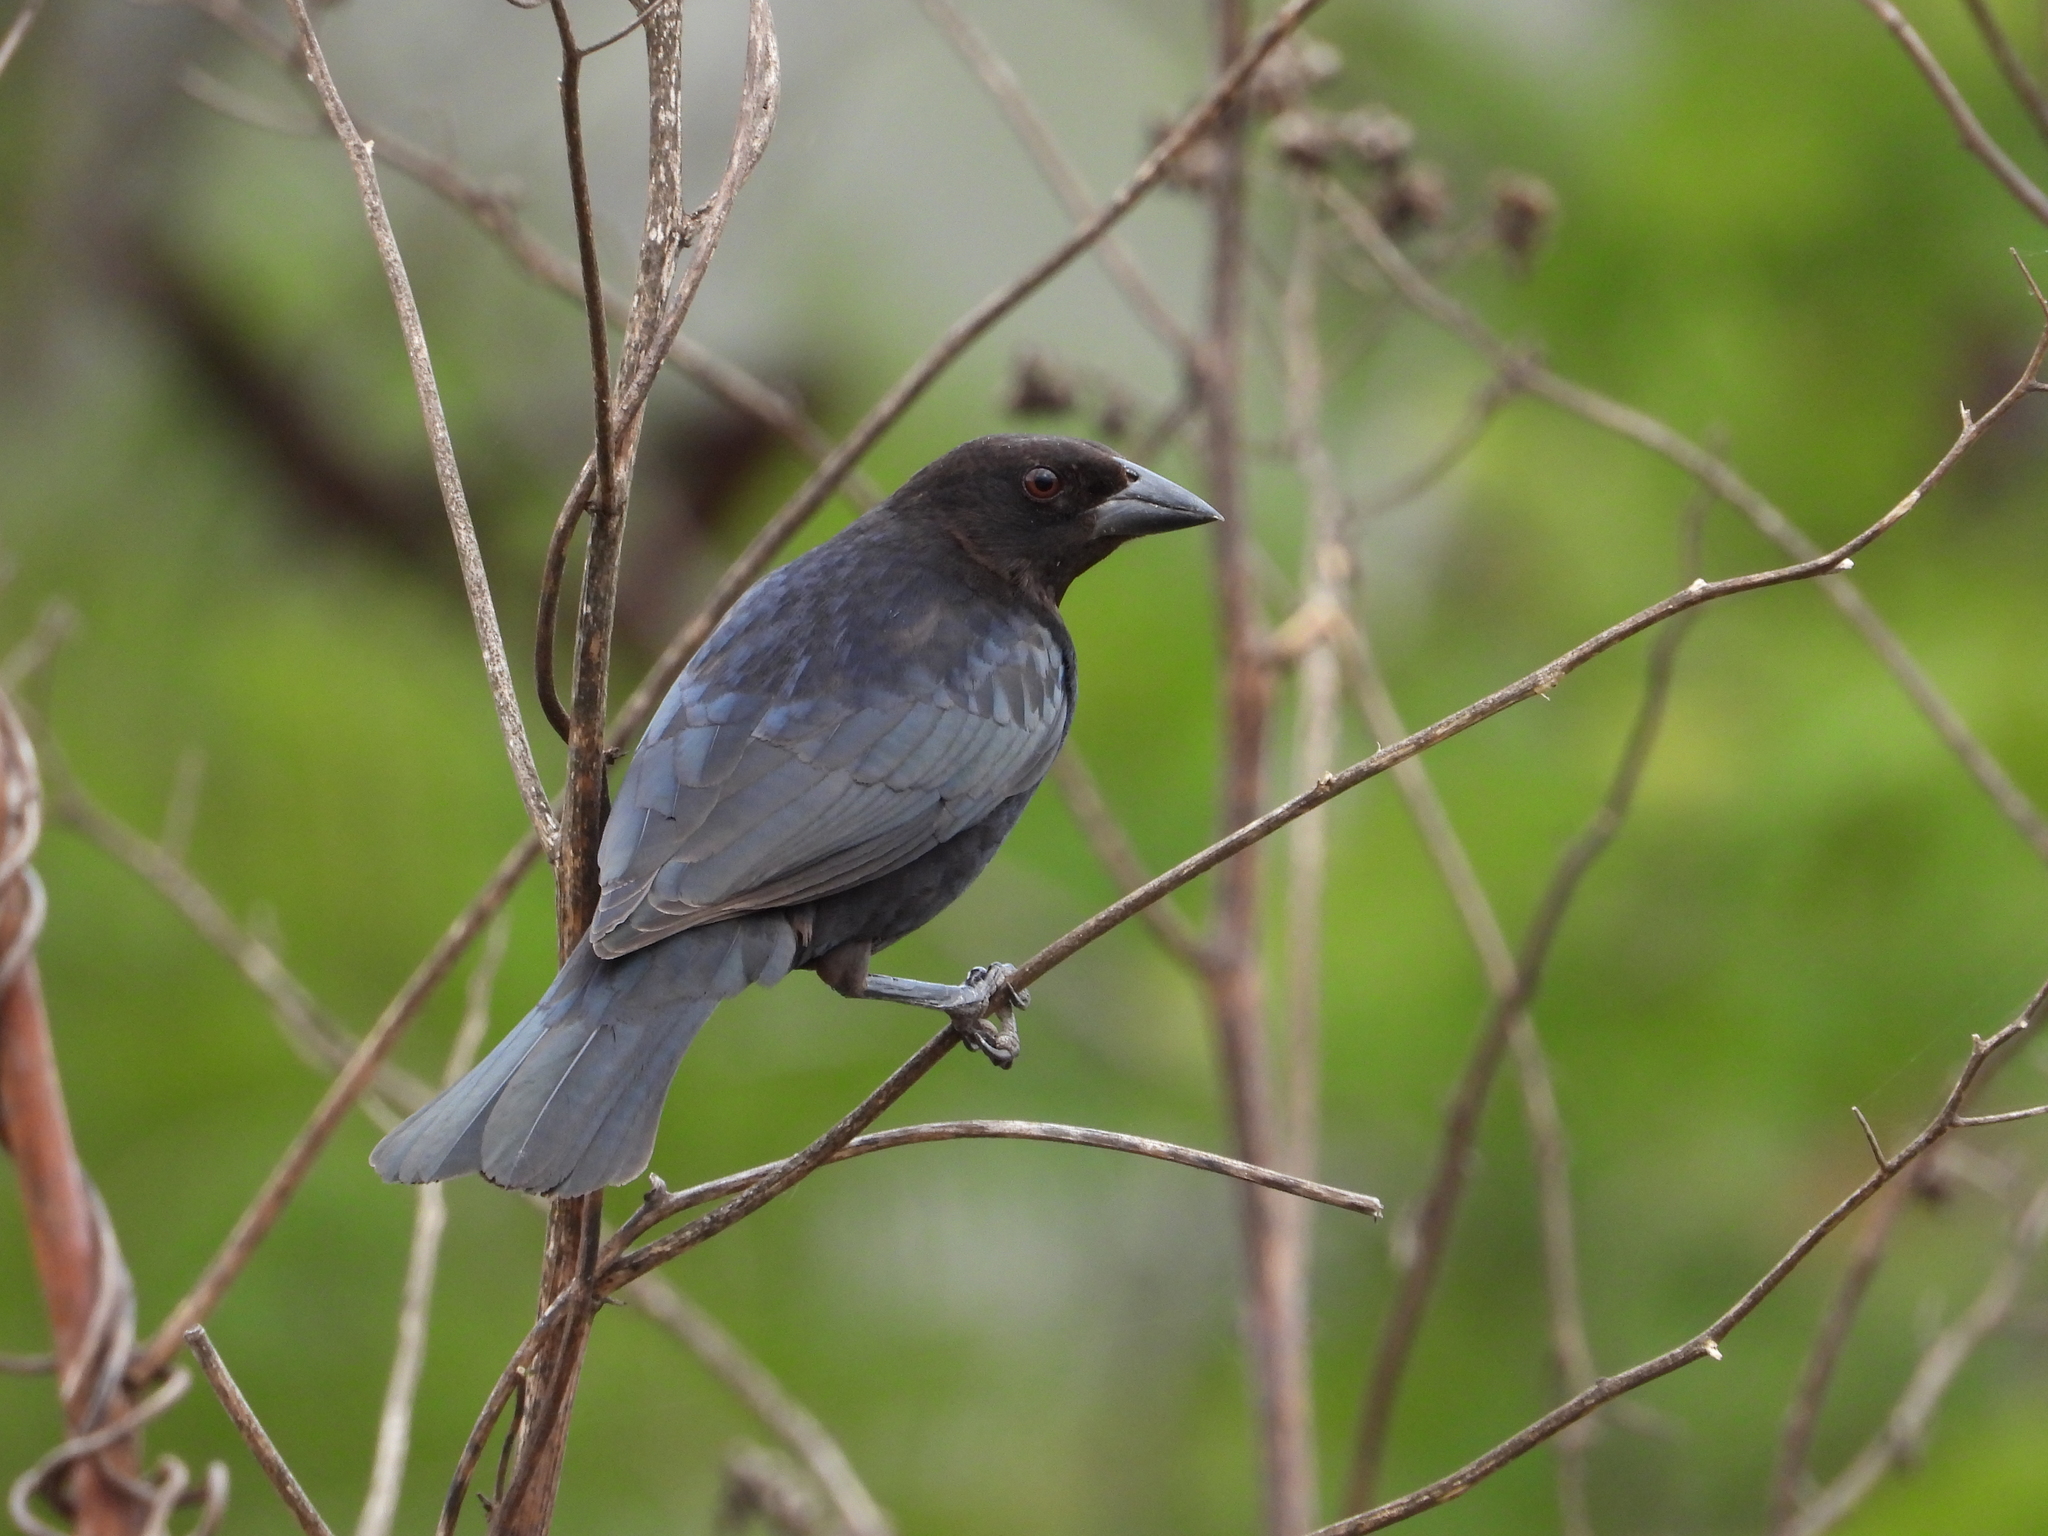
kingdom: Animalia
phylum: Chordata
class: Aves
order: Passeriformes
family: Icteridae
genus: Molothrus
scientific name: Molothrus aeneus
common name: Bronzed cowbird
